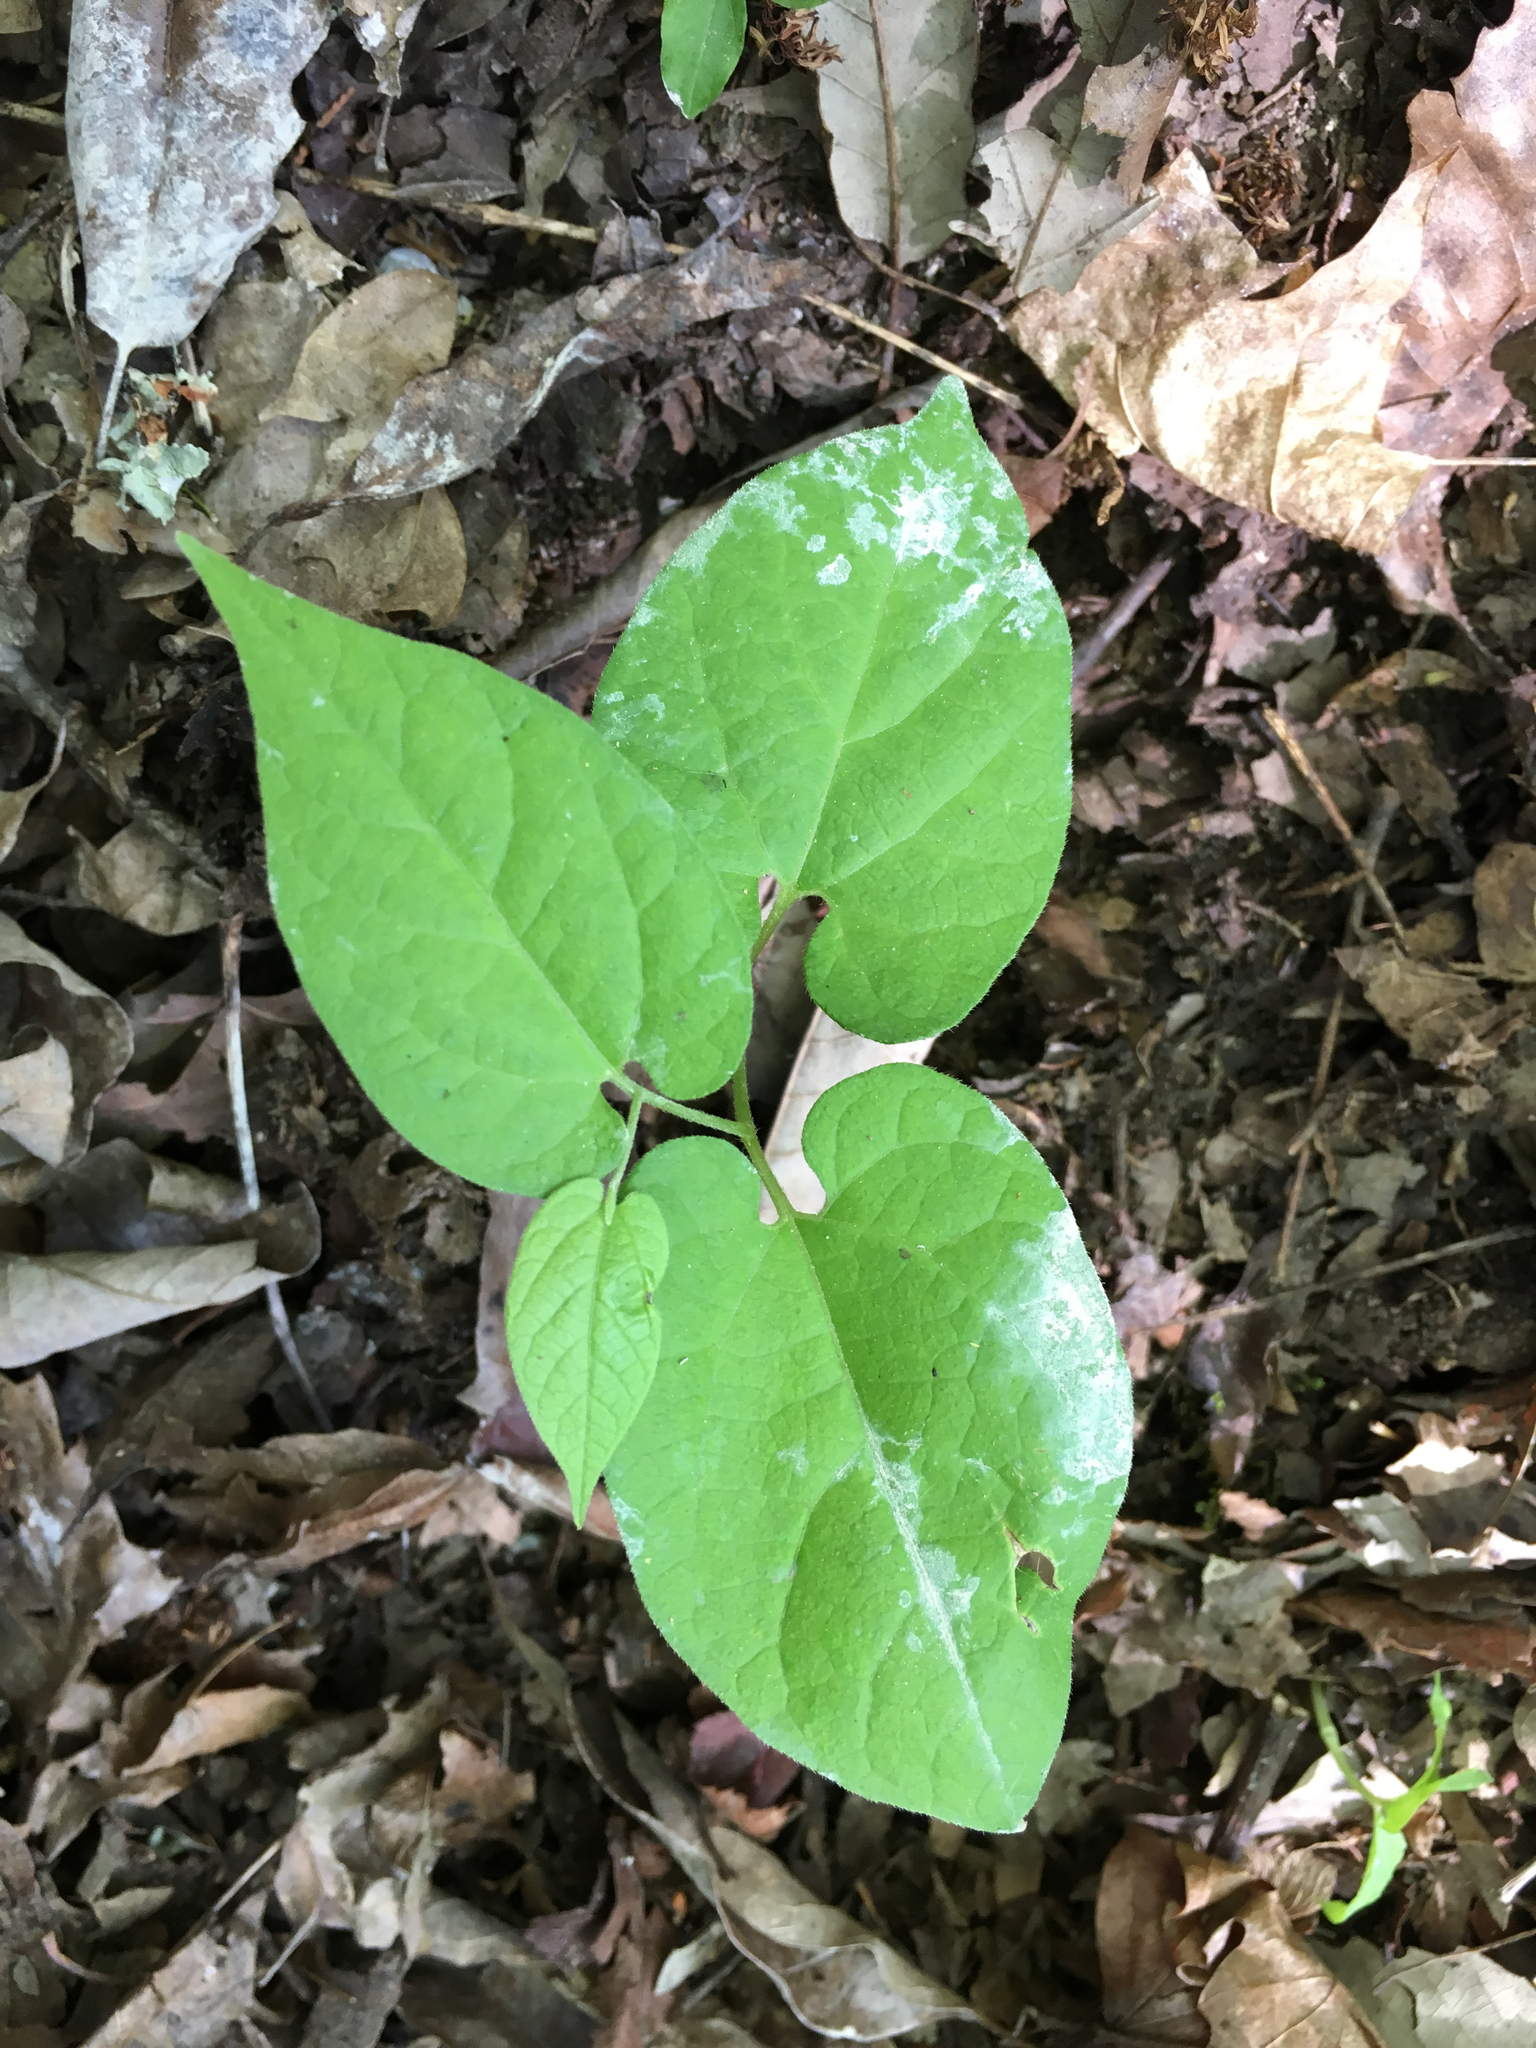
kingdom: Plantae
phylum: Tracheophyta
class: Magnoliopsida
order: Piperales
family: Aristolochiaceae
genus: Endodeca
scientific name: Endodeca serpentaria
